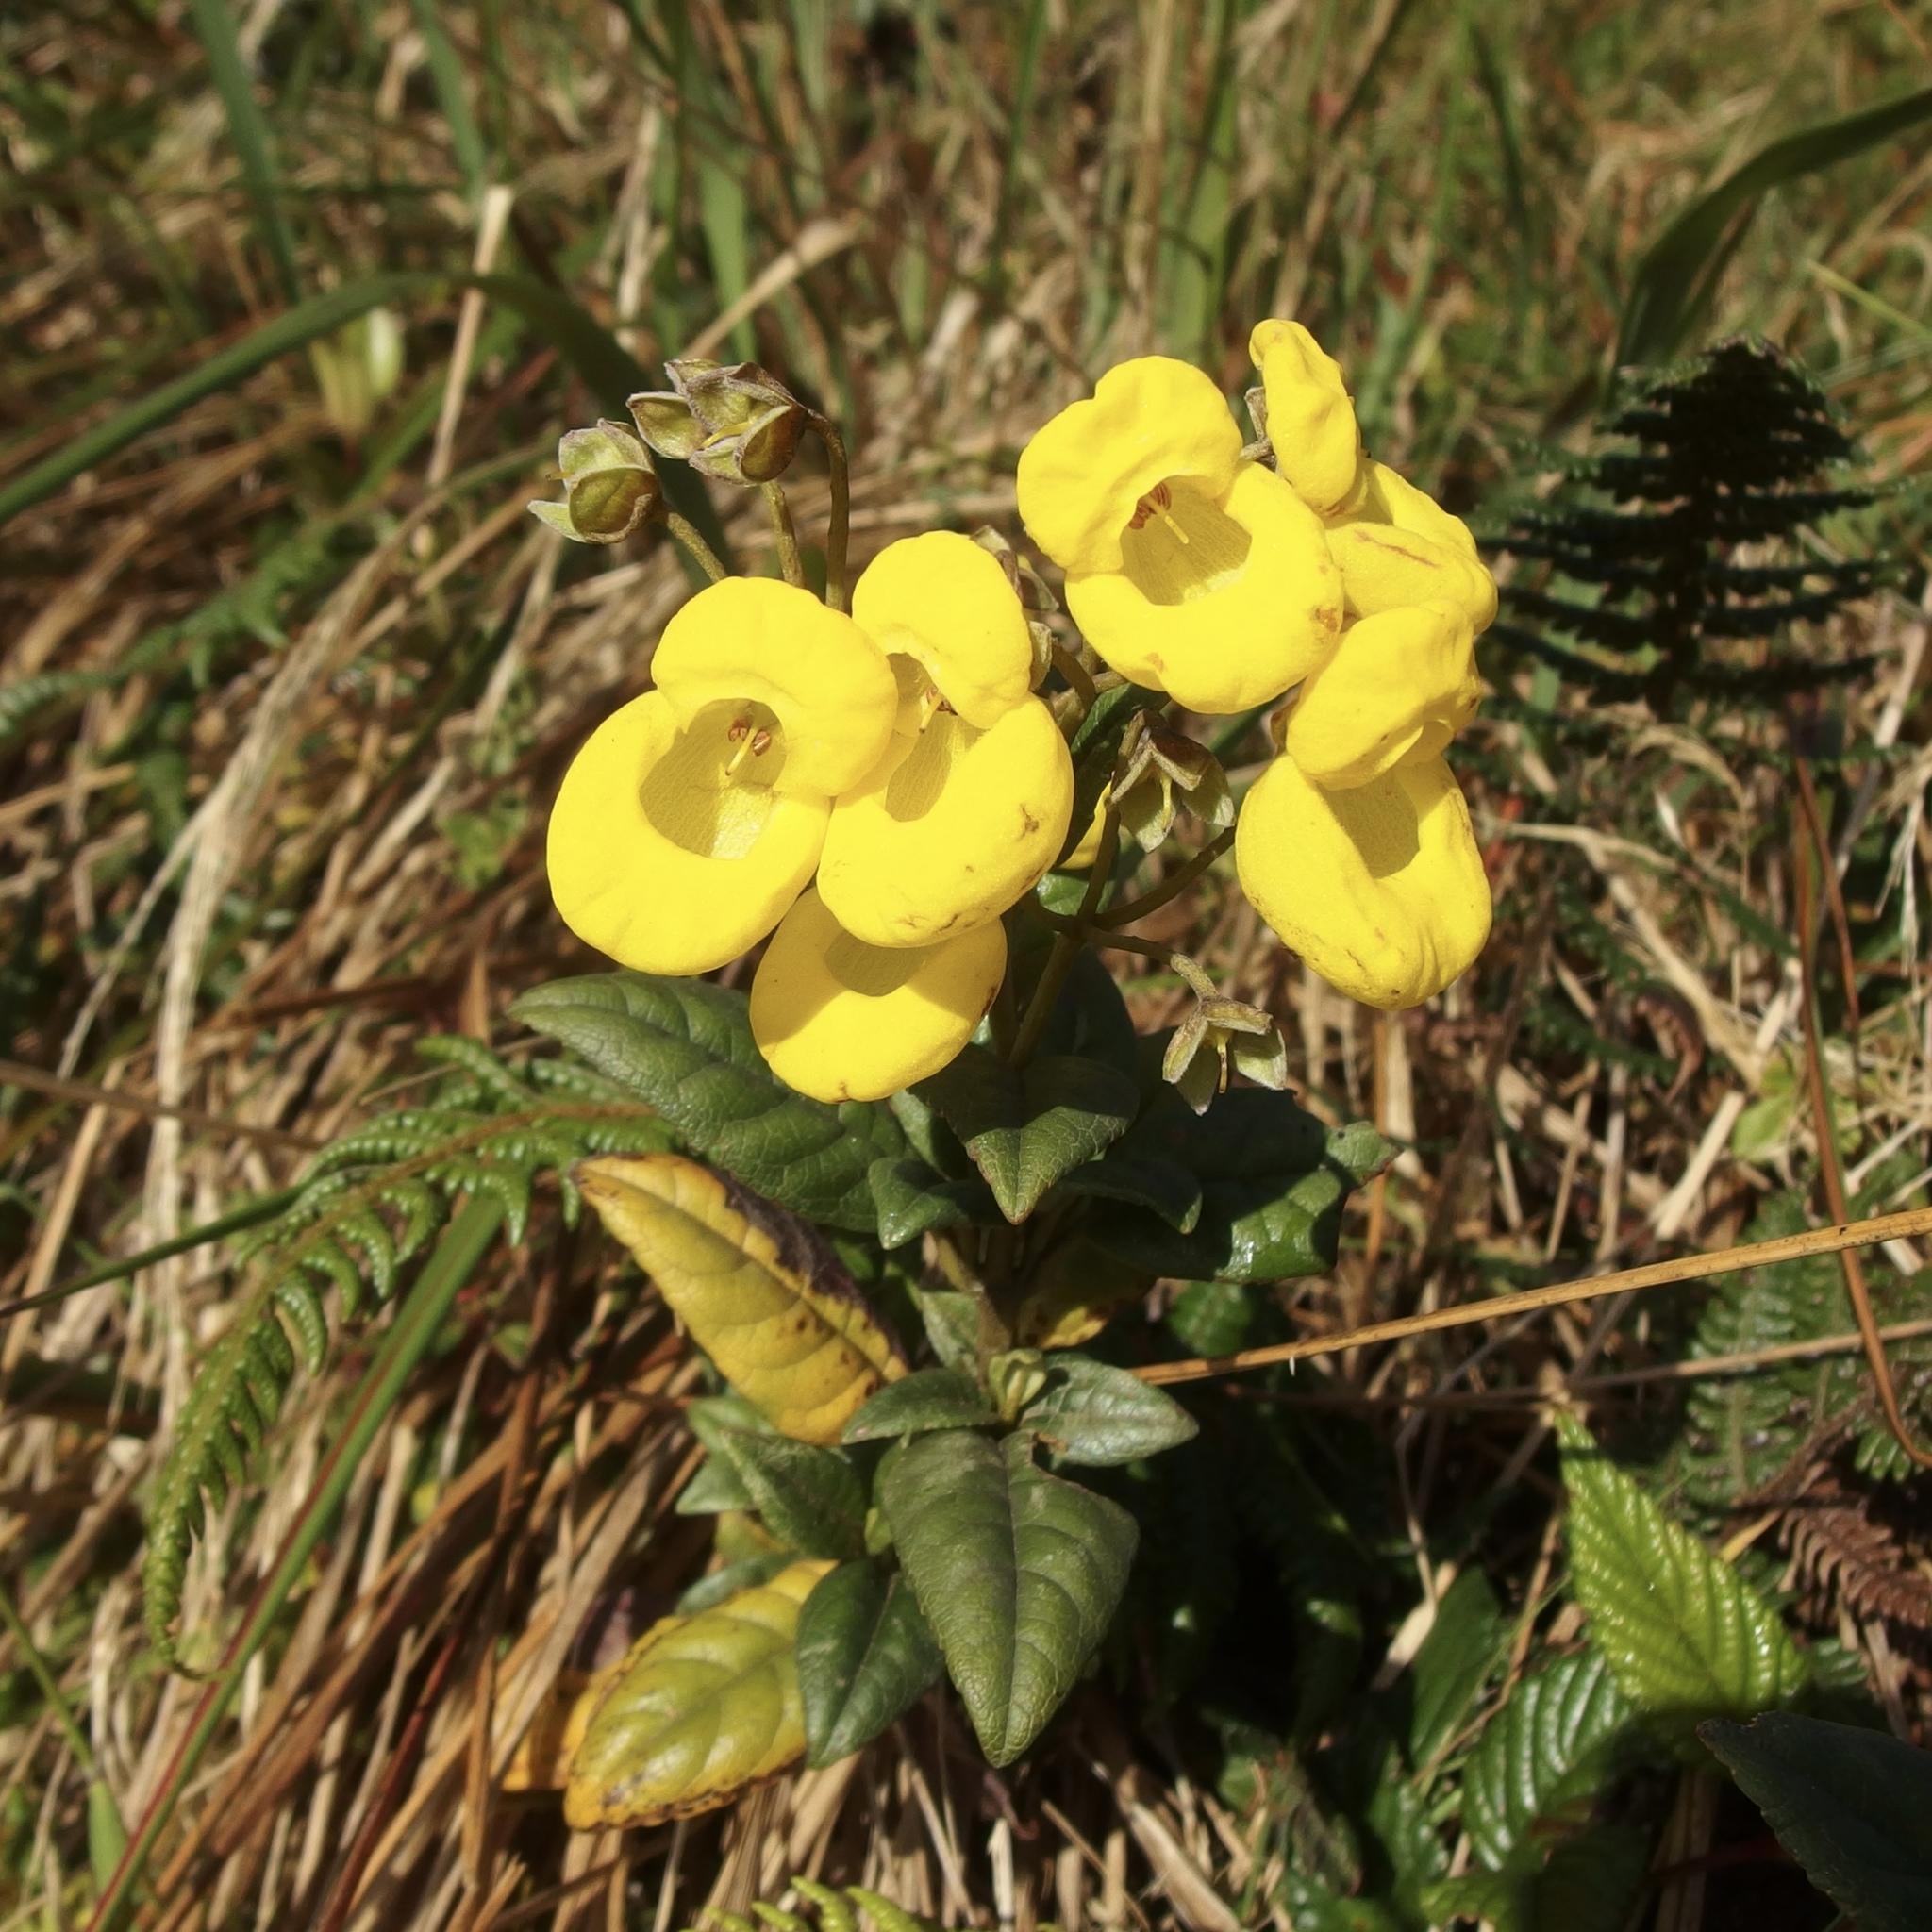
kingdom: Plantae
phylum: Tracheophyta
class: Magnoliopsida
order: Lamiales
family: Calceolariaceae
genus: Calceolaria
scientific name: Calceolaria oxyphylla
